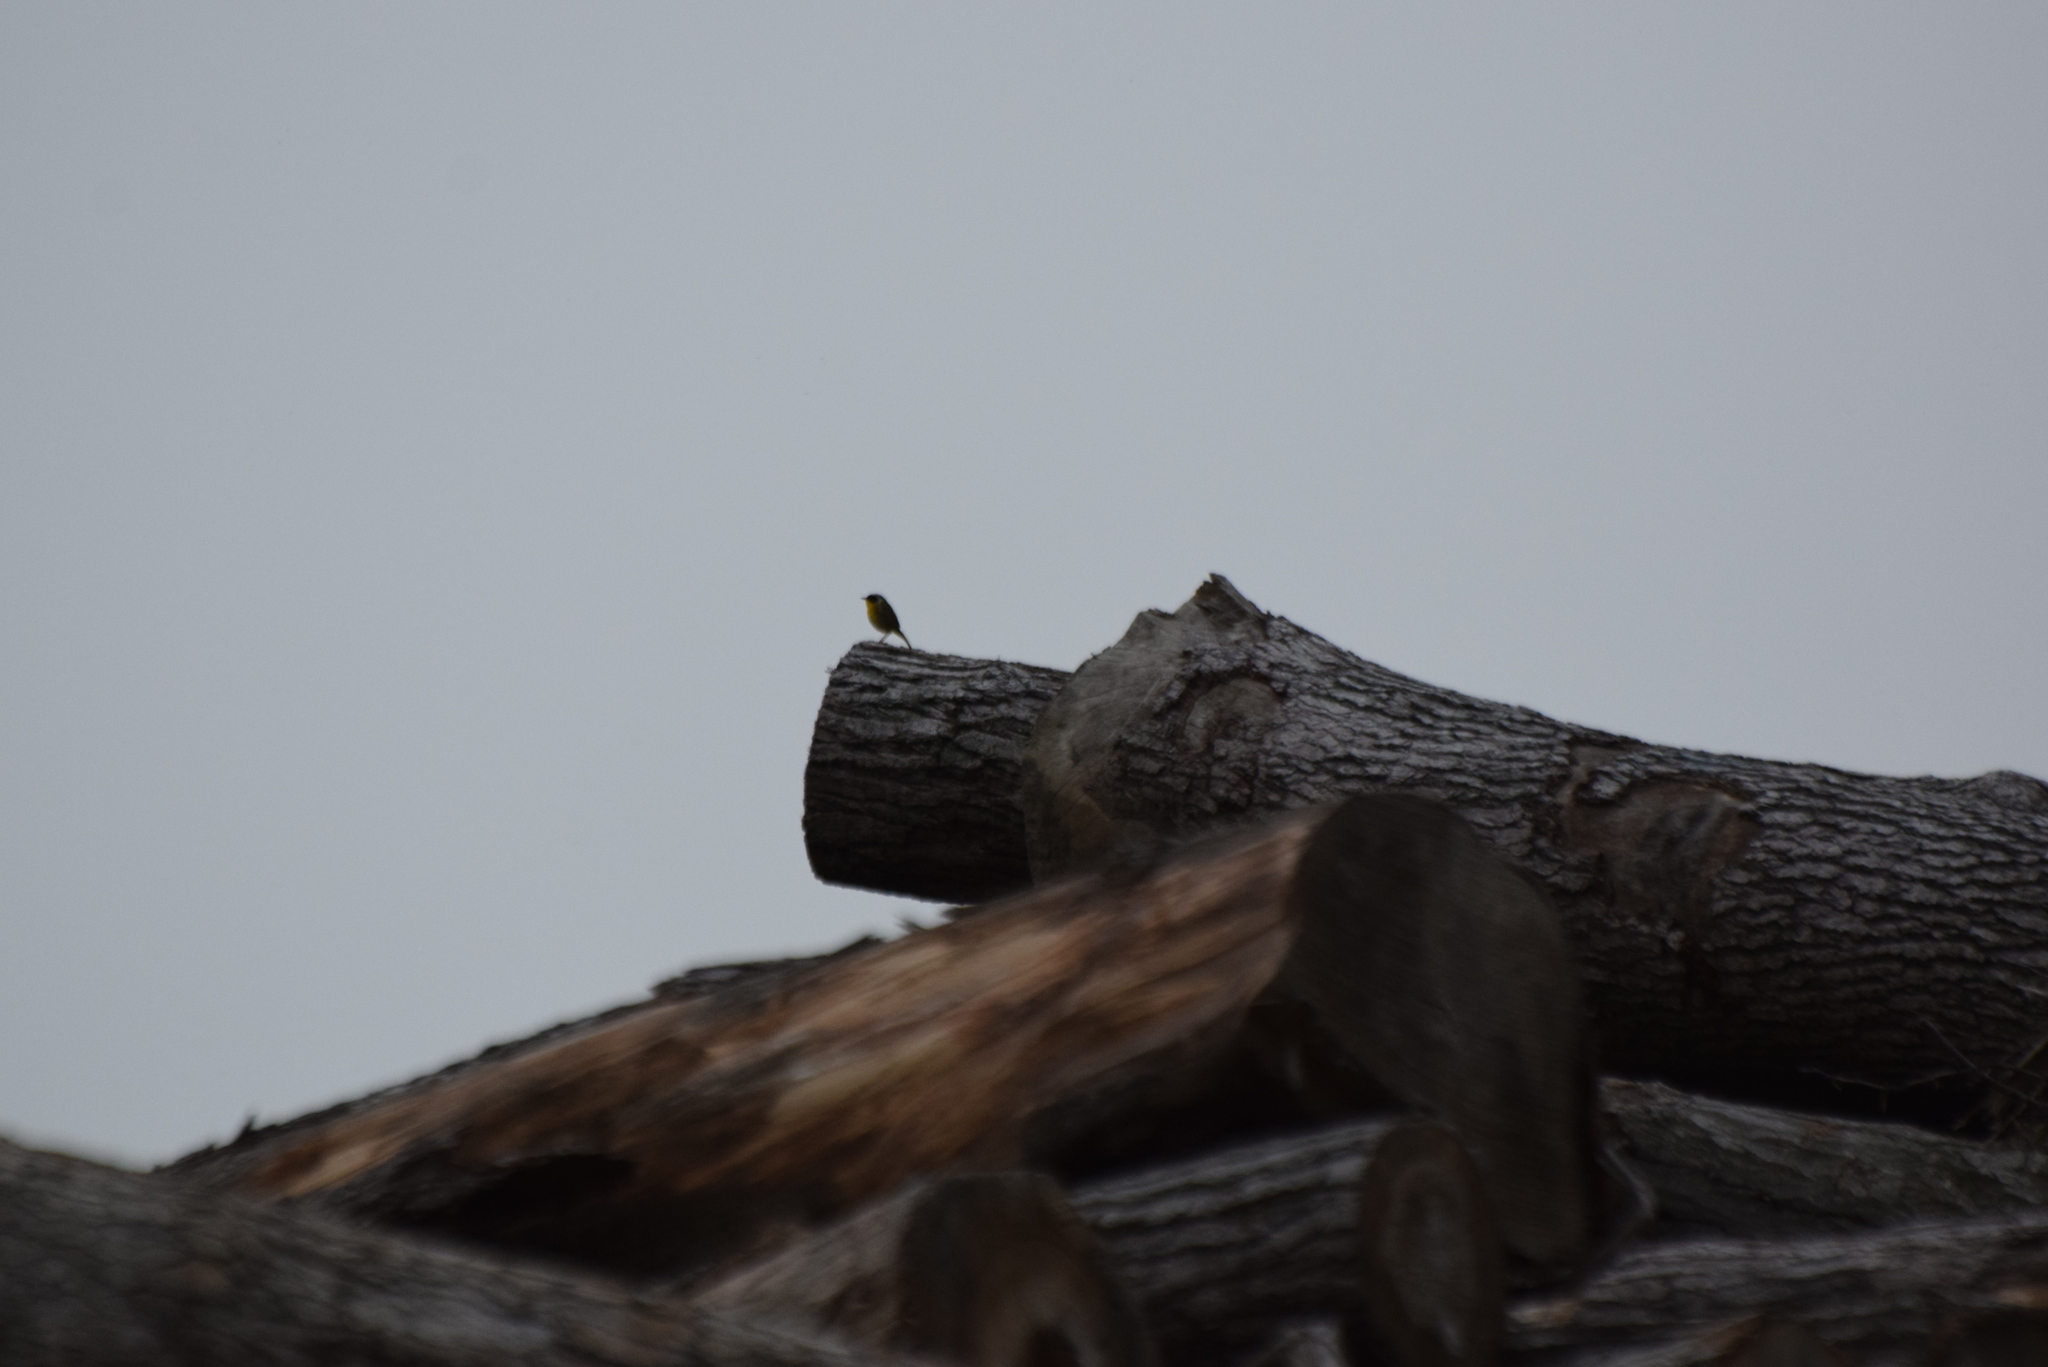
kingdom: Animalia
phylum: Chordata
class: Aves
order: Passeriformes
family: Parulidae
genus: Geothlypis
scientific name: Geothlypis trichas
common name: Common yellowthroat
